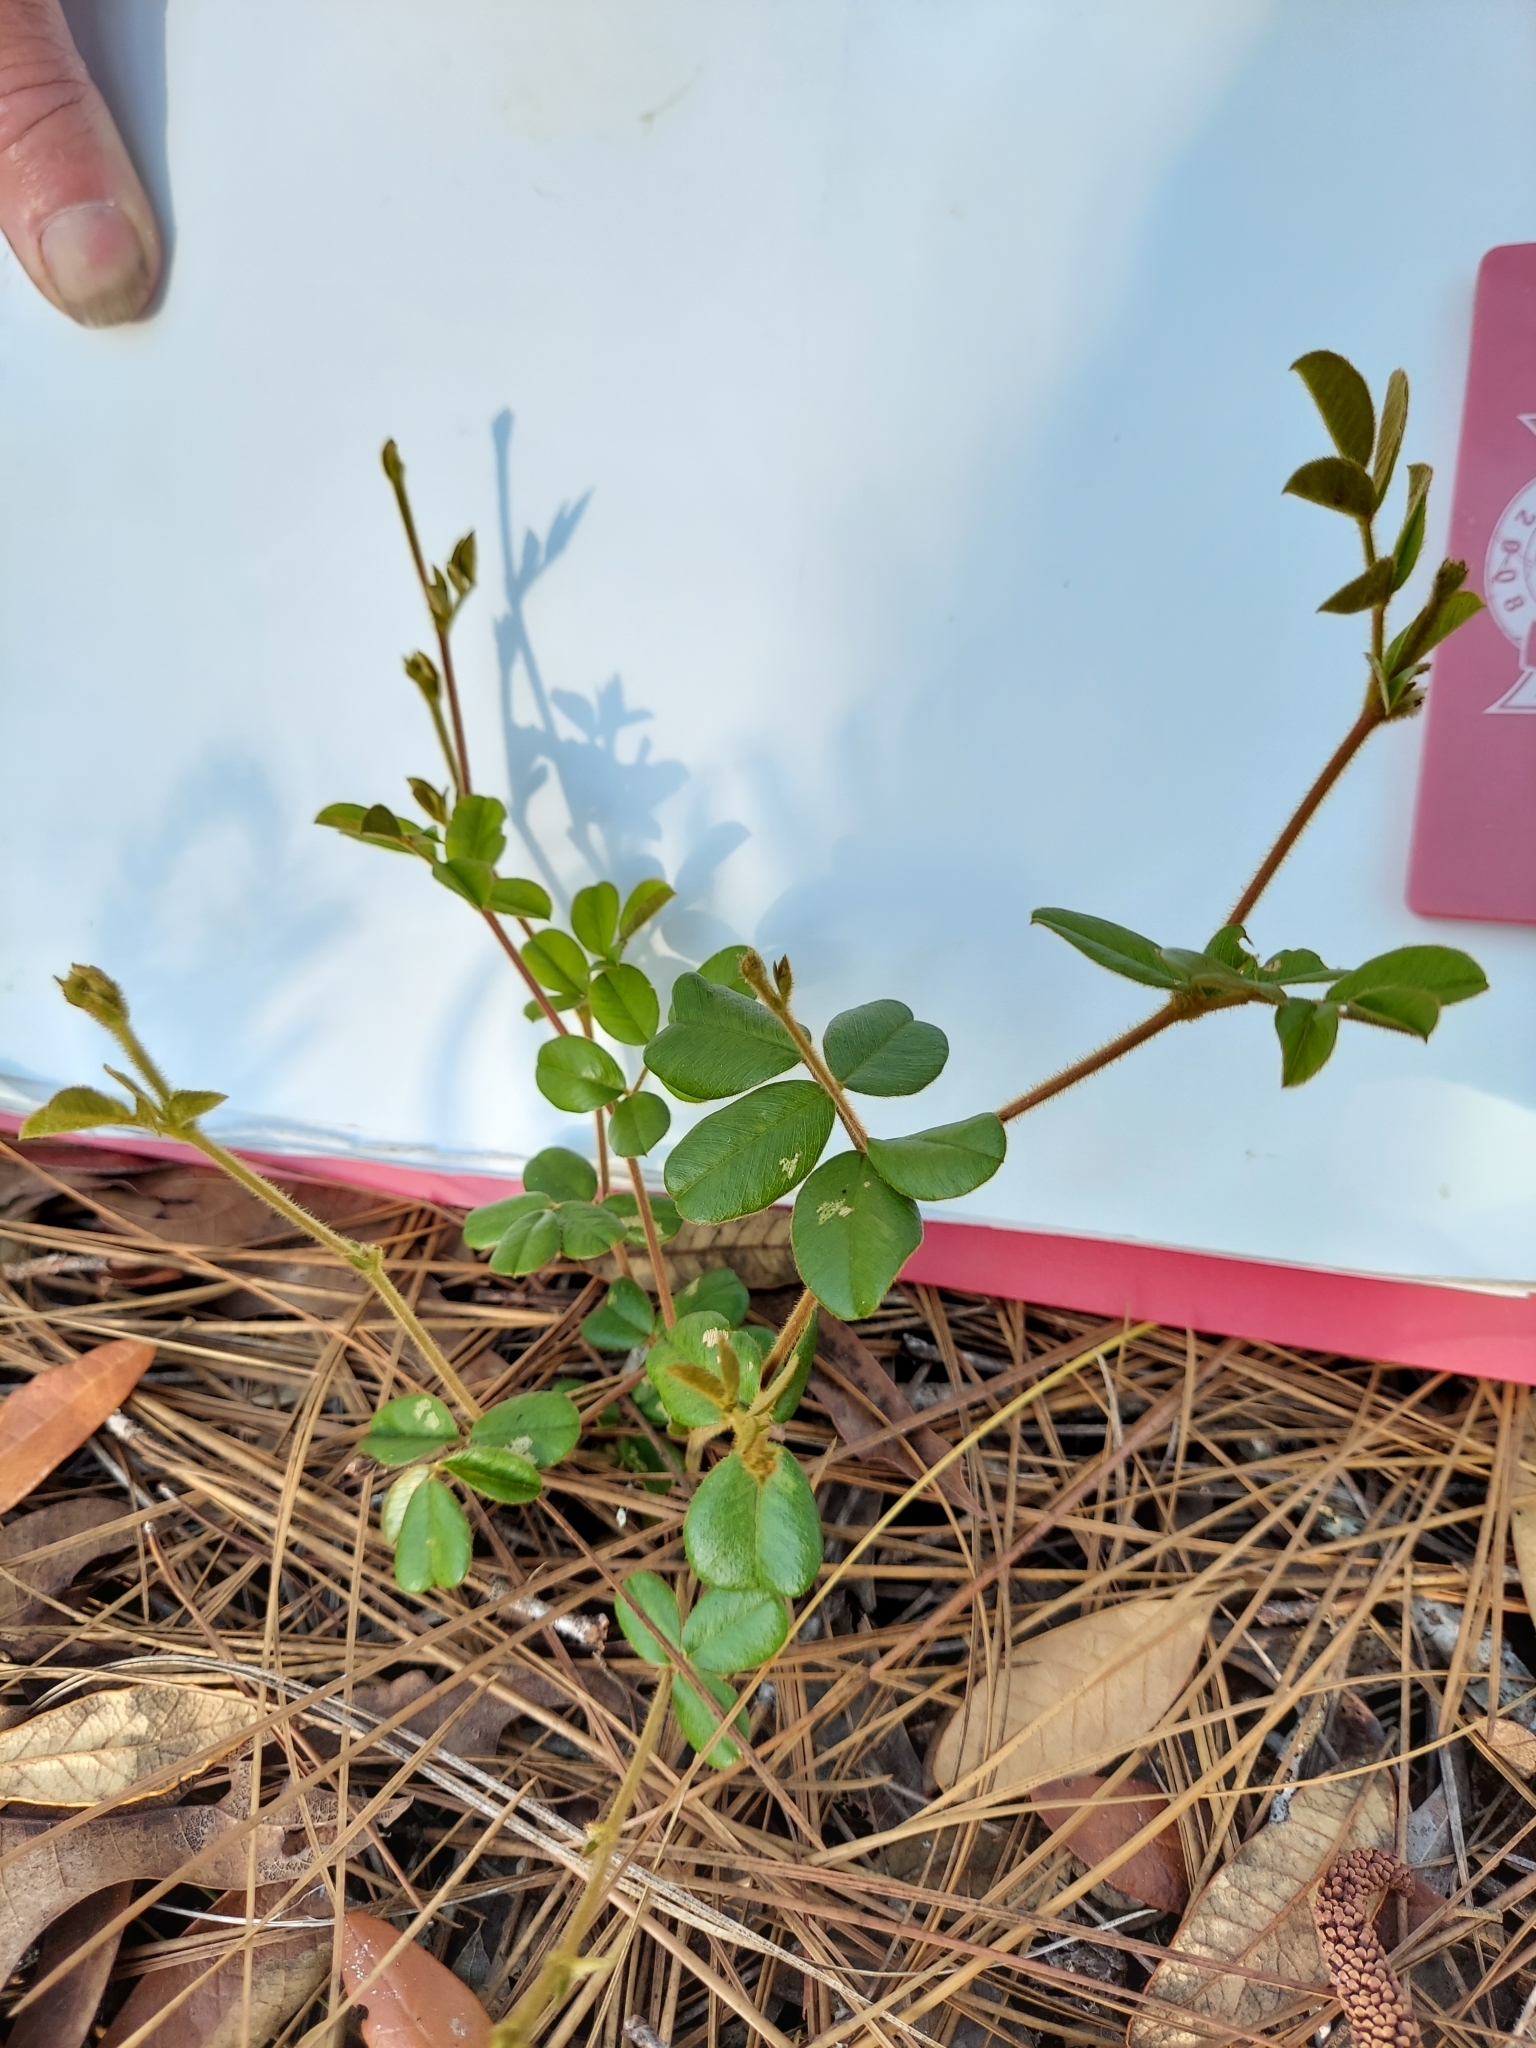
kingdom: Plantae
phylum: Tracheophyta
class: Magnoliopsida
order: Fabales
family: Fabaceae
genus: Tephrosia
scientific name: Tephrosia chrysophylla
